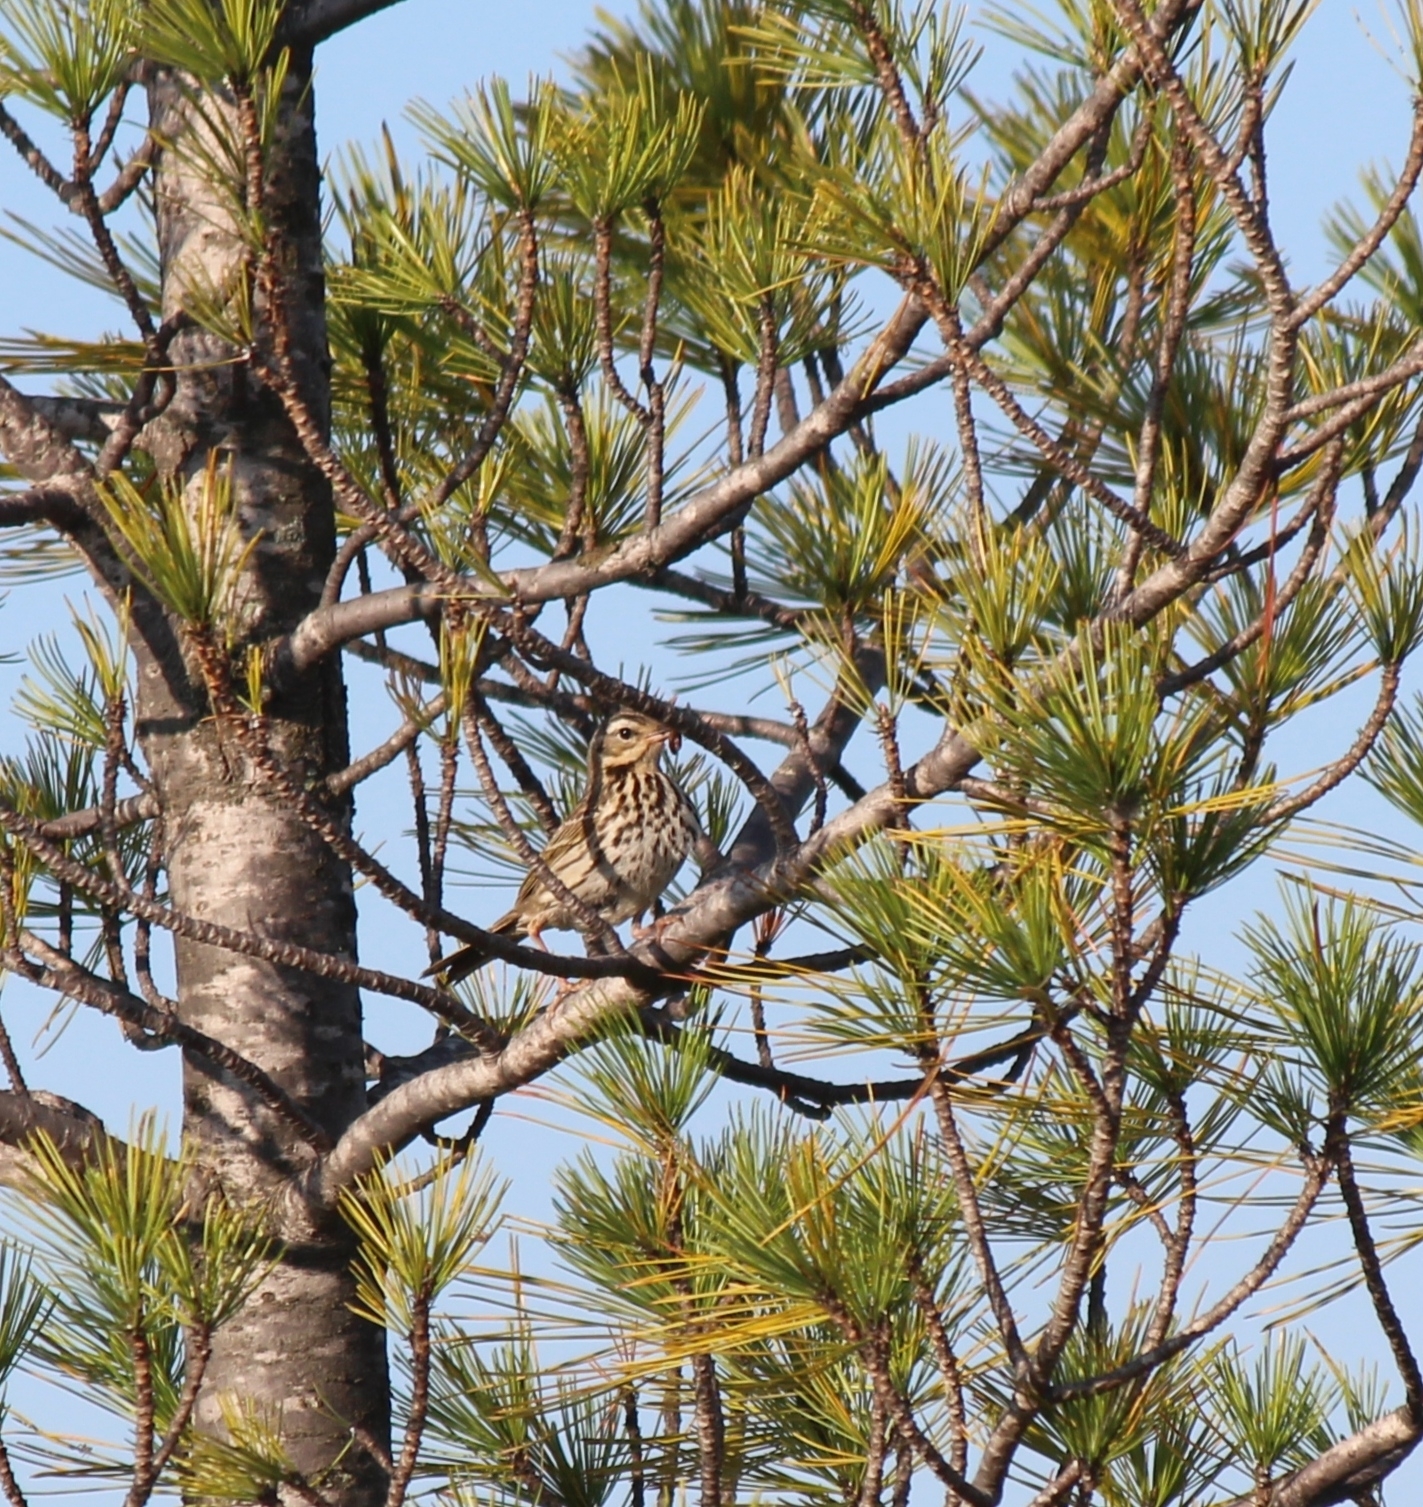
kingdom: Animalia
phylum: Chordata
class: Aves
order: Passeriformes
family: Motacillidae
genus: Anthus
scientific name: Anthus hodgsoni
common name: Olive-backed pipit
